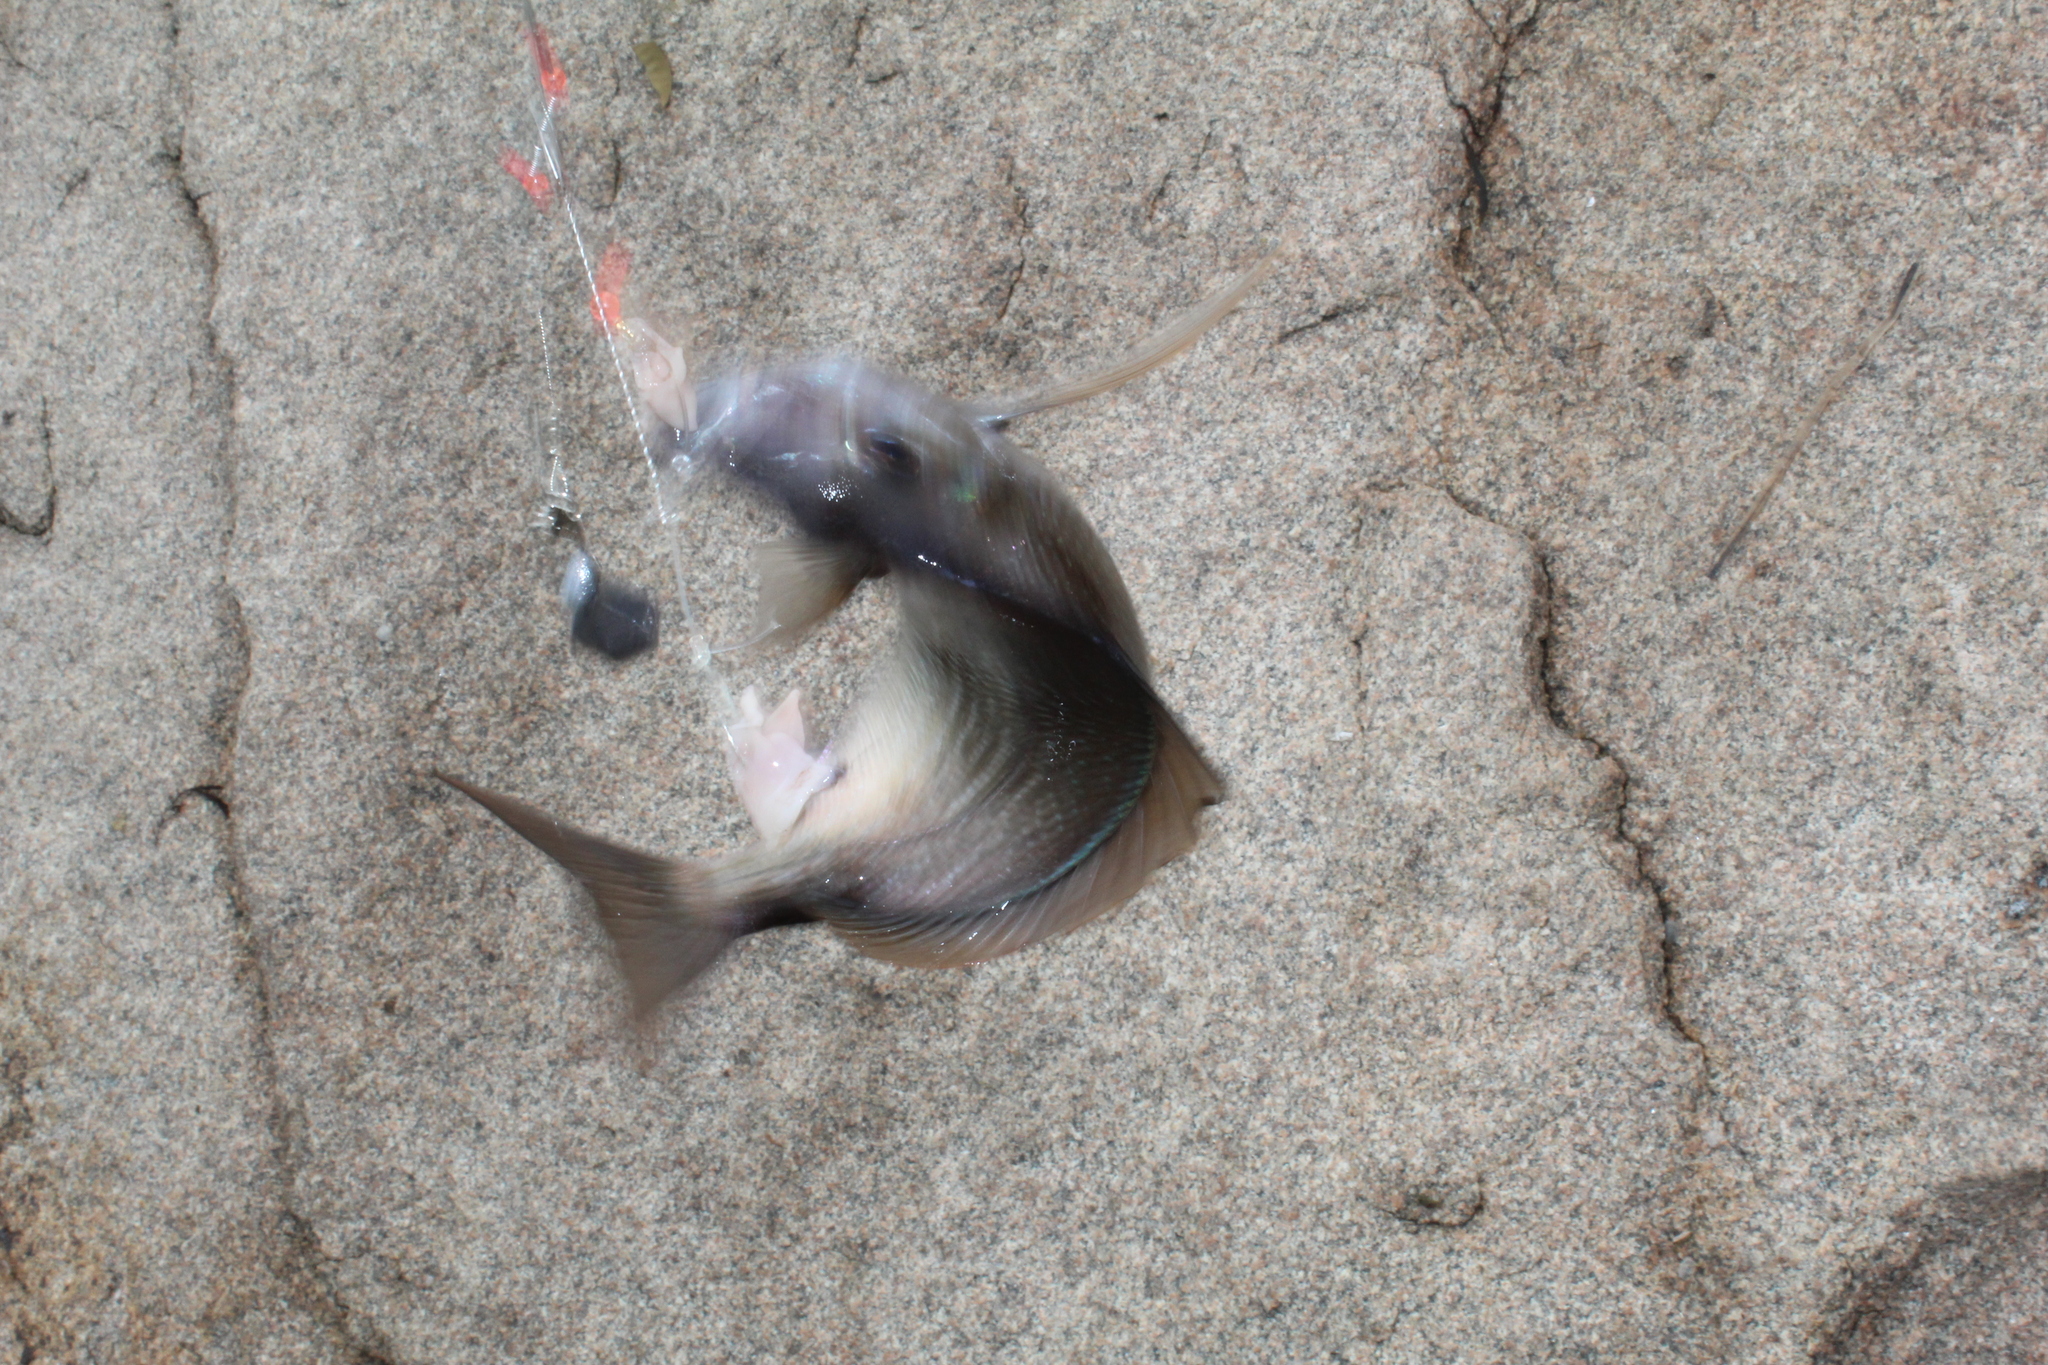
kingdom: Animalia
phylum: Chordata
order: Perciformes
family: Sparidae
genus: Stenotomus
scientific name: Stenotomus chrysops
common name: Scup
